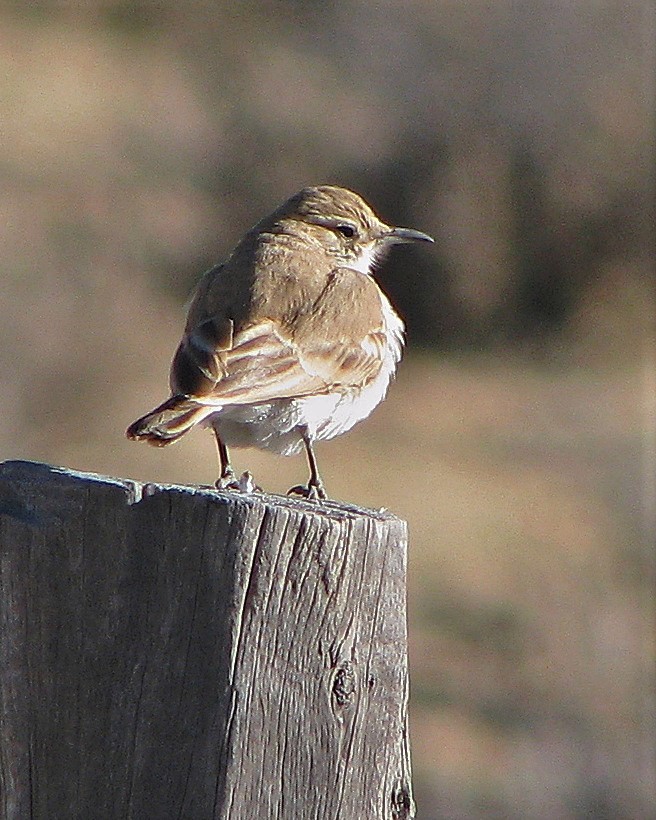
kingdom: Animalia
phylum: Chordata
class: Aves
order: Passeriformes
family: Furnariidae
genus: Geositta
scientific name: Geositta punensis
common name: Puna miner
